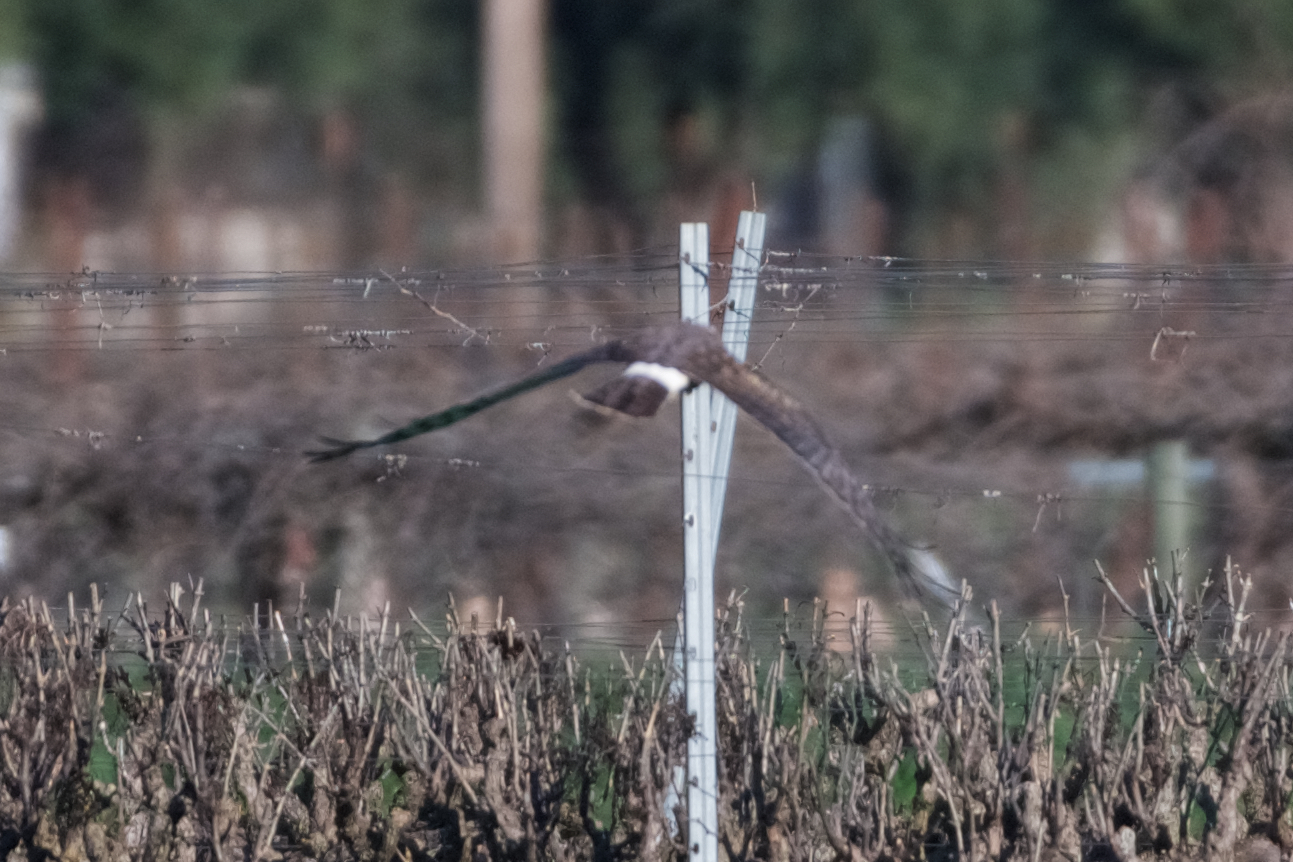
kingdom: Animalia
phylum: Chordata
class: Aves
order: Accipitriformes
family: Accipitridae
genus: Circus
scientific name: Circus cyaneus
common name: Hen harrier
